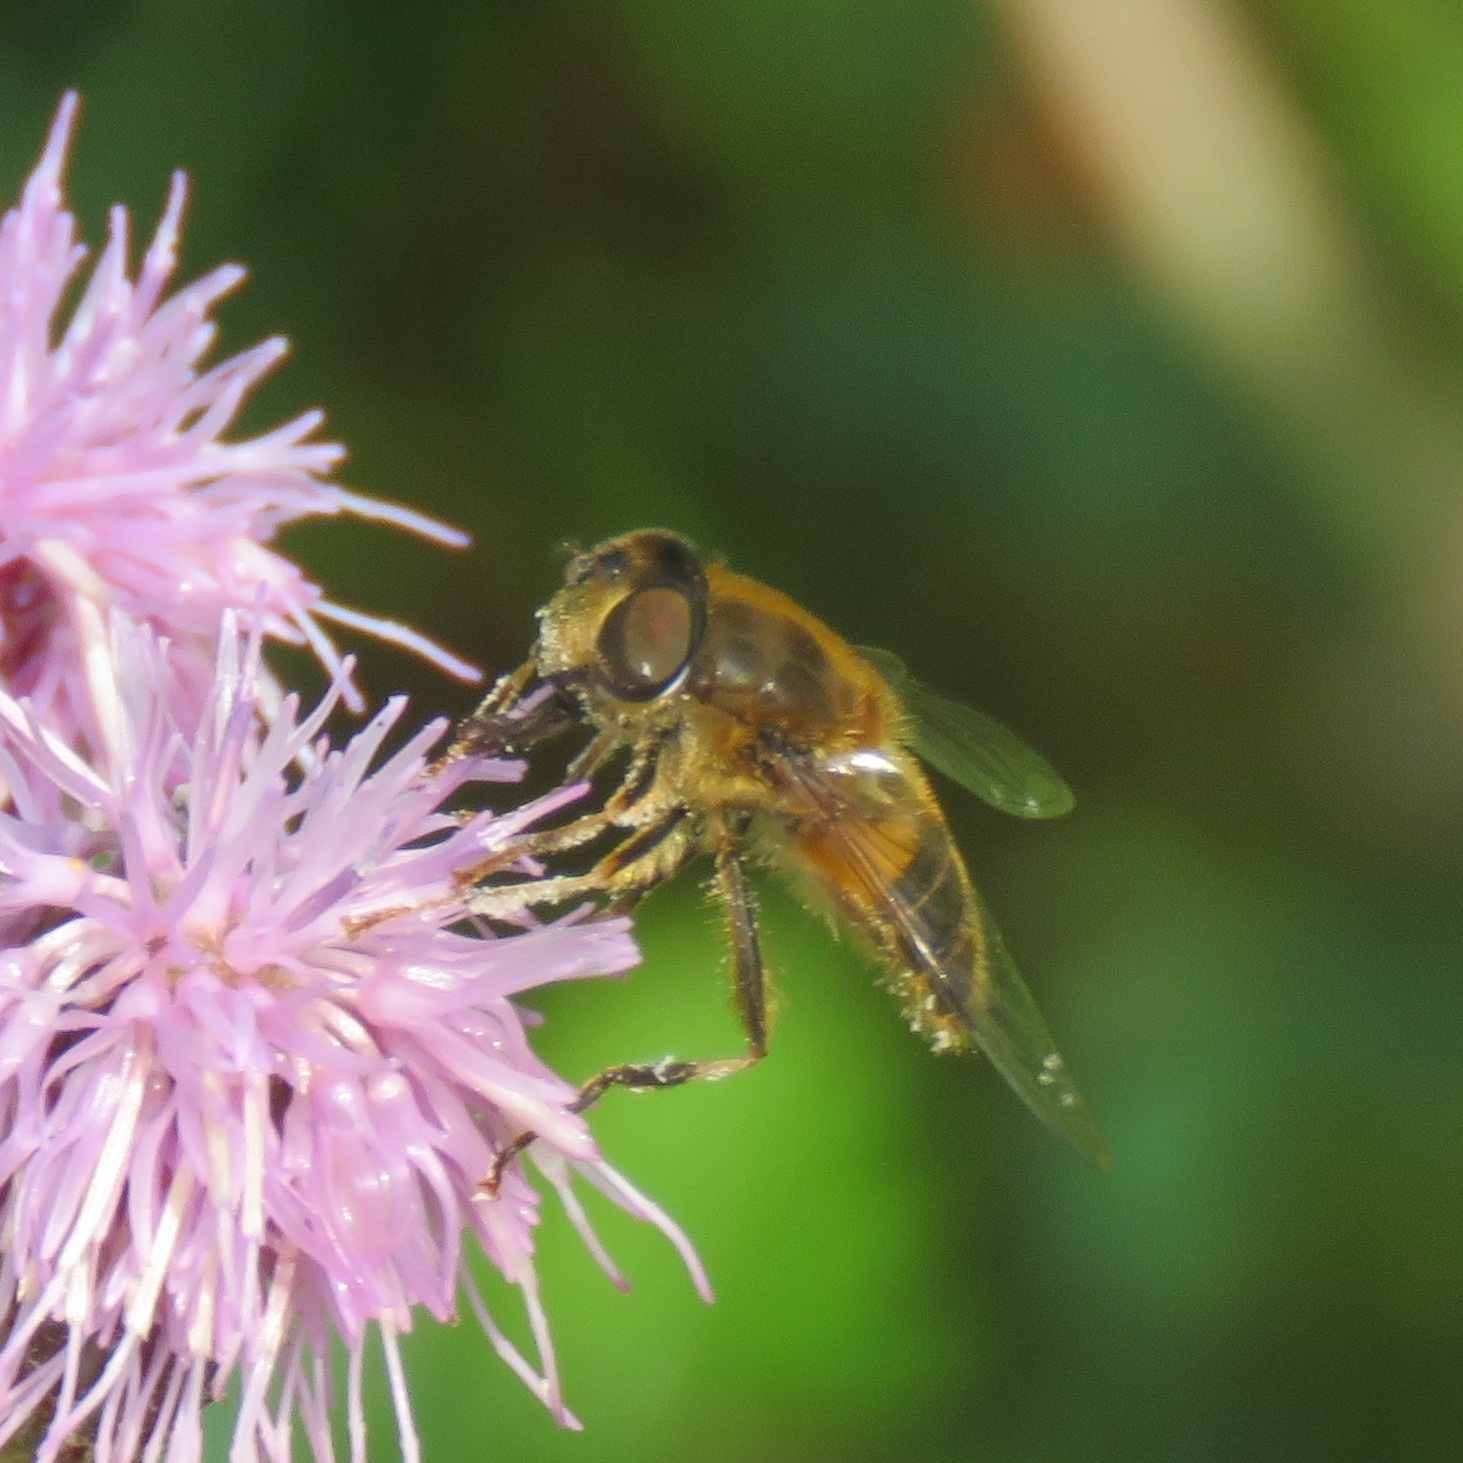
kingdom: Animalia
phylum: Arthropoda
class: Insecta
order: Diptera
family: Syrphidae
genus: Eristalis
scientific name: Eristalis pertinax
